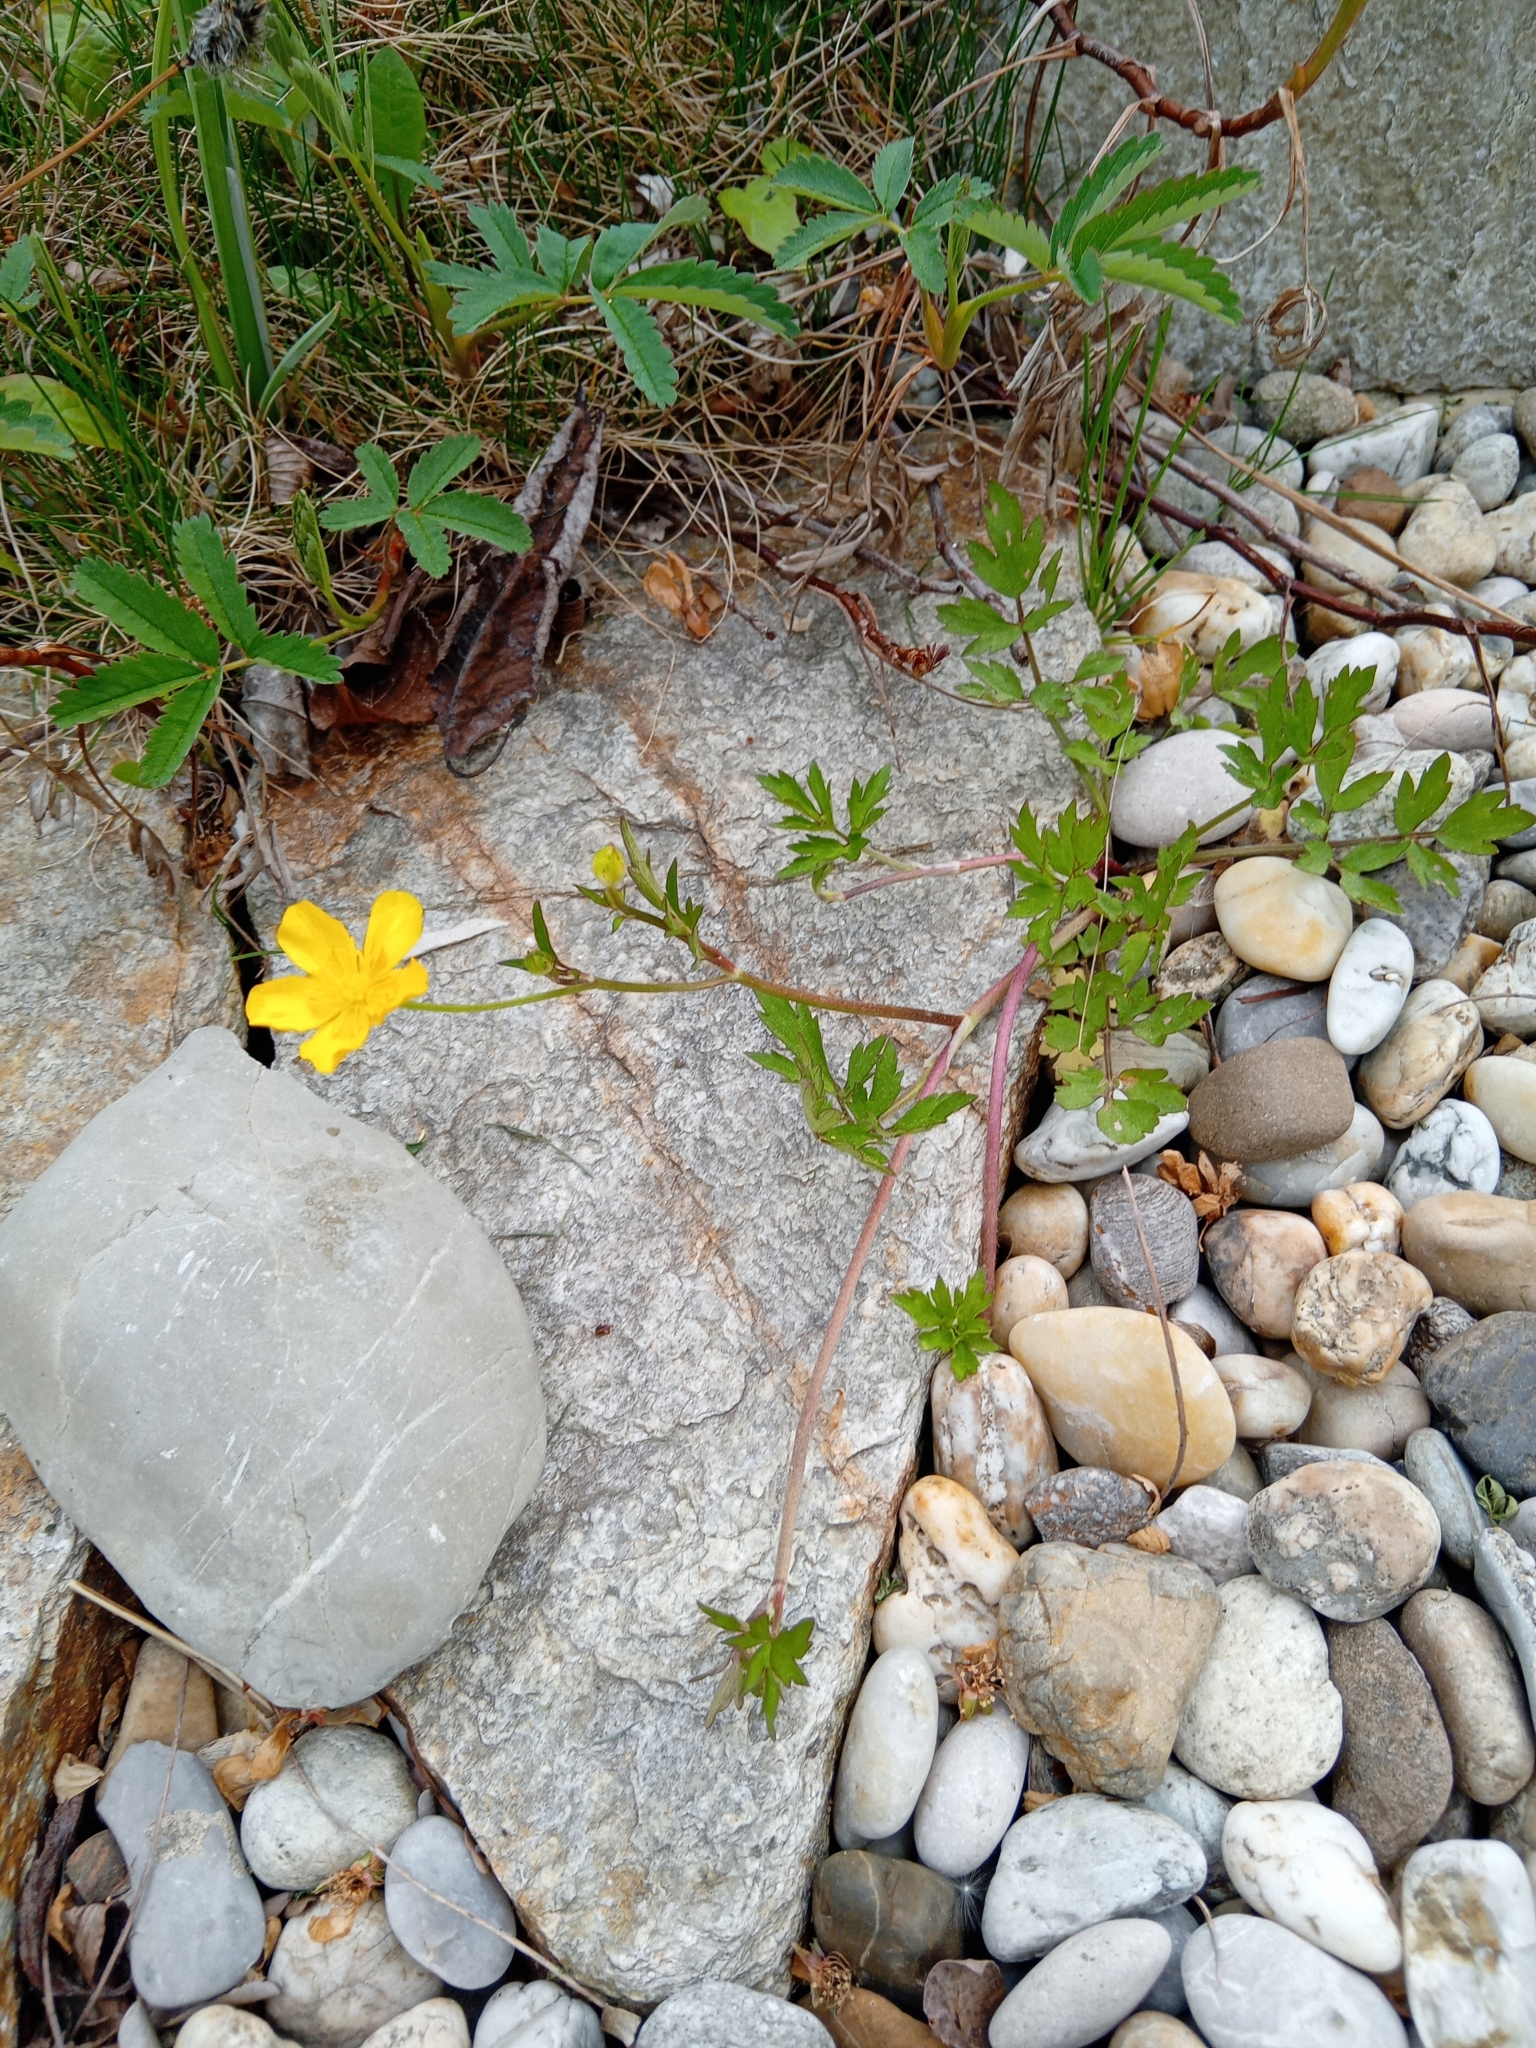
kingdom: Plantae
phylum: Tracheophyta
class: Magnoliopsida
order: Ranunculales
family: Ranunculaceae
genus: Ranunculus
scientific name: Ranunculus repens
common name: Creeping buttercup
